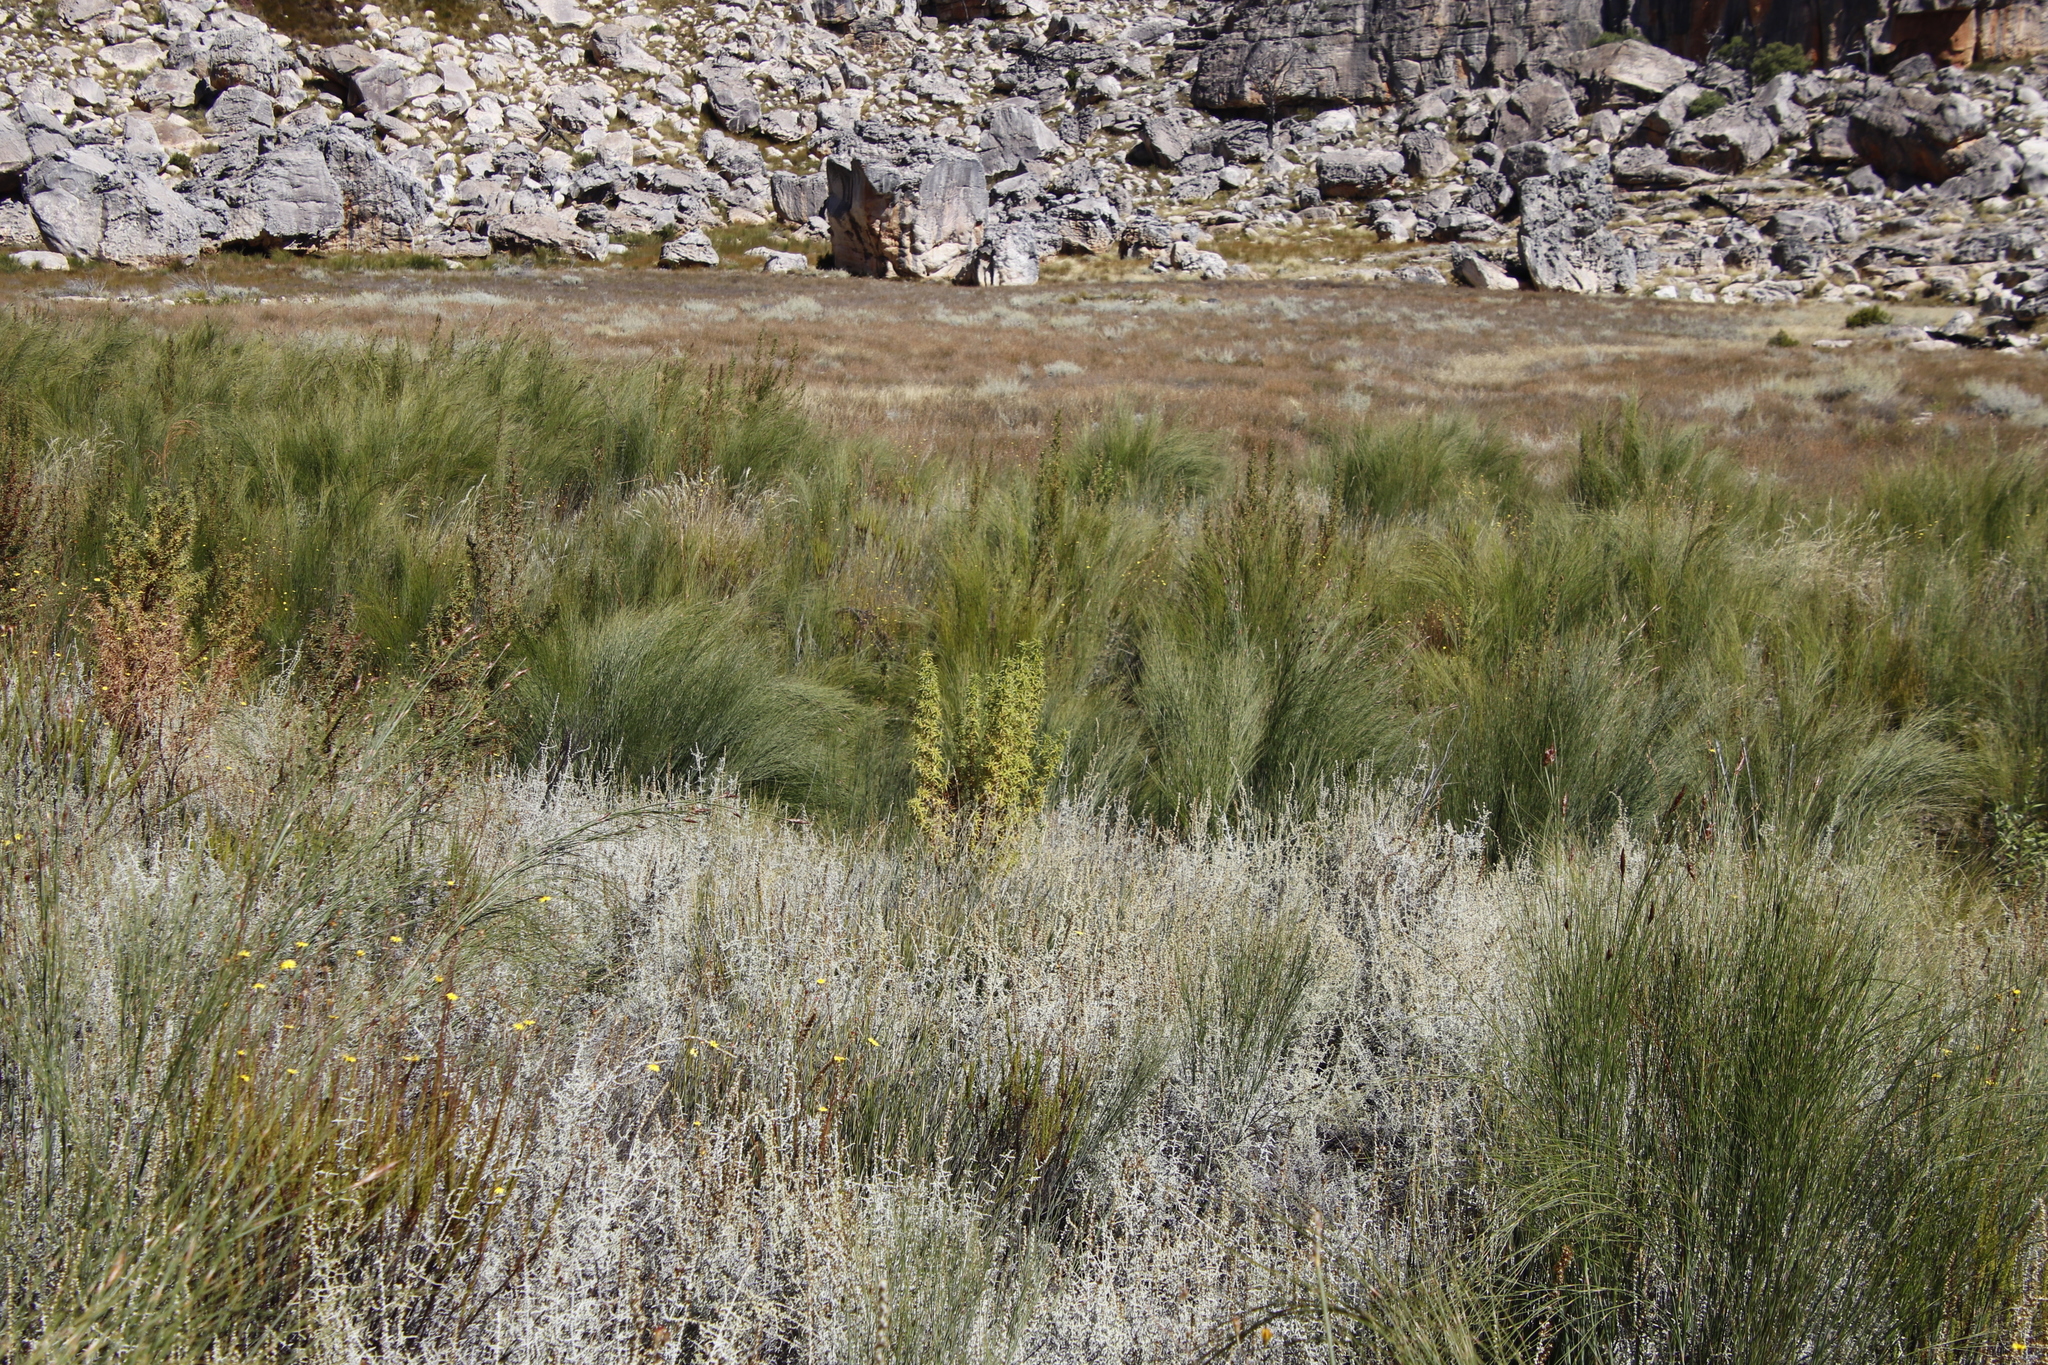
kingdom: Plantae
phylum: Tracheophyta
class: Magnoliopsida
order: Rosales
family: Rosaceae
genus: Cliffortia
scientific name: Cliffortia acanthophylla
